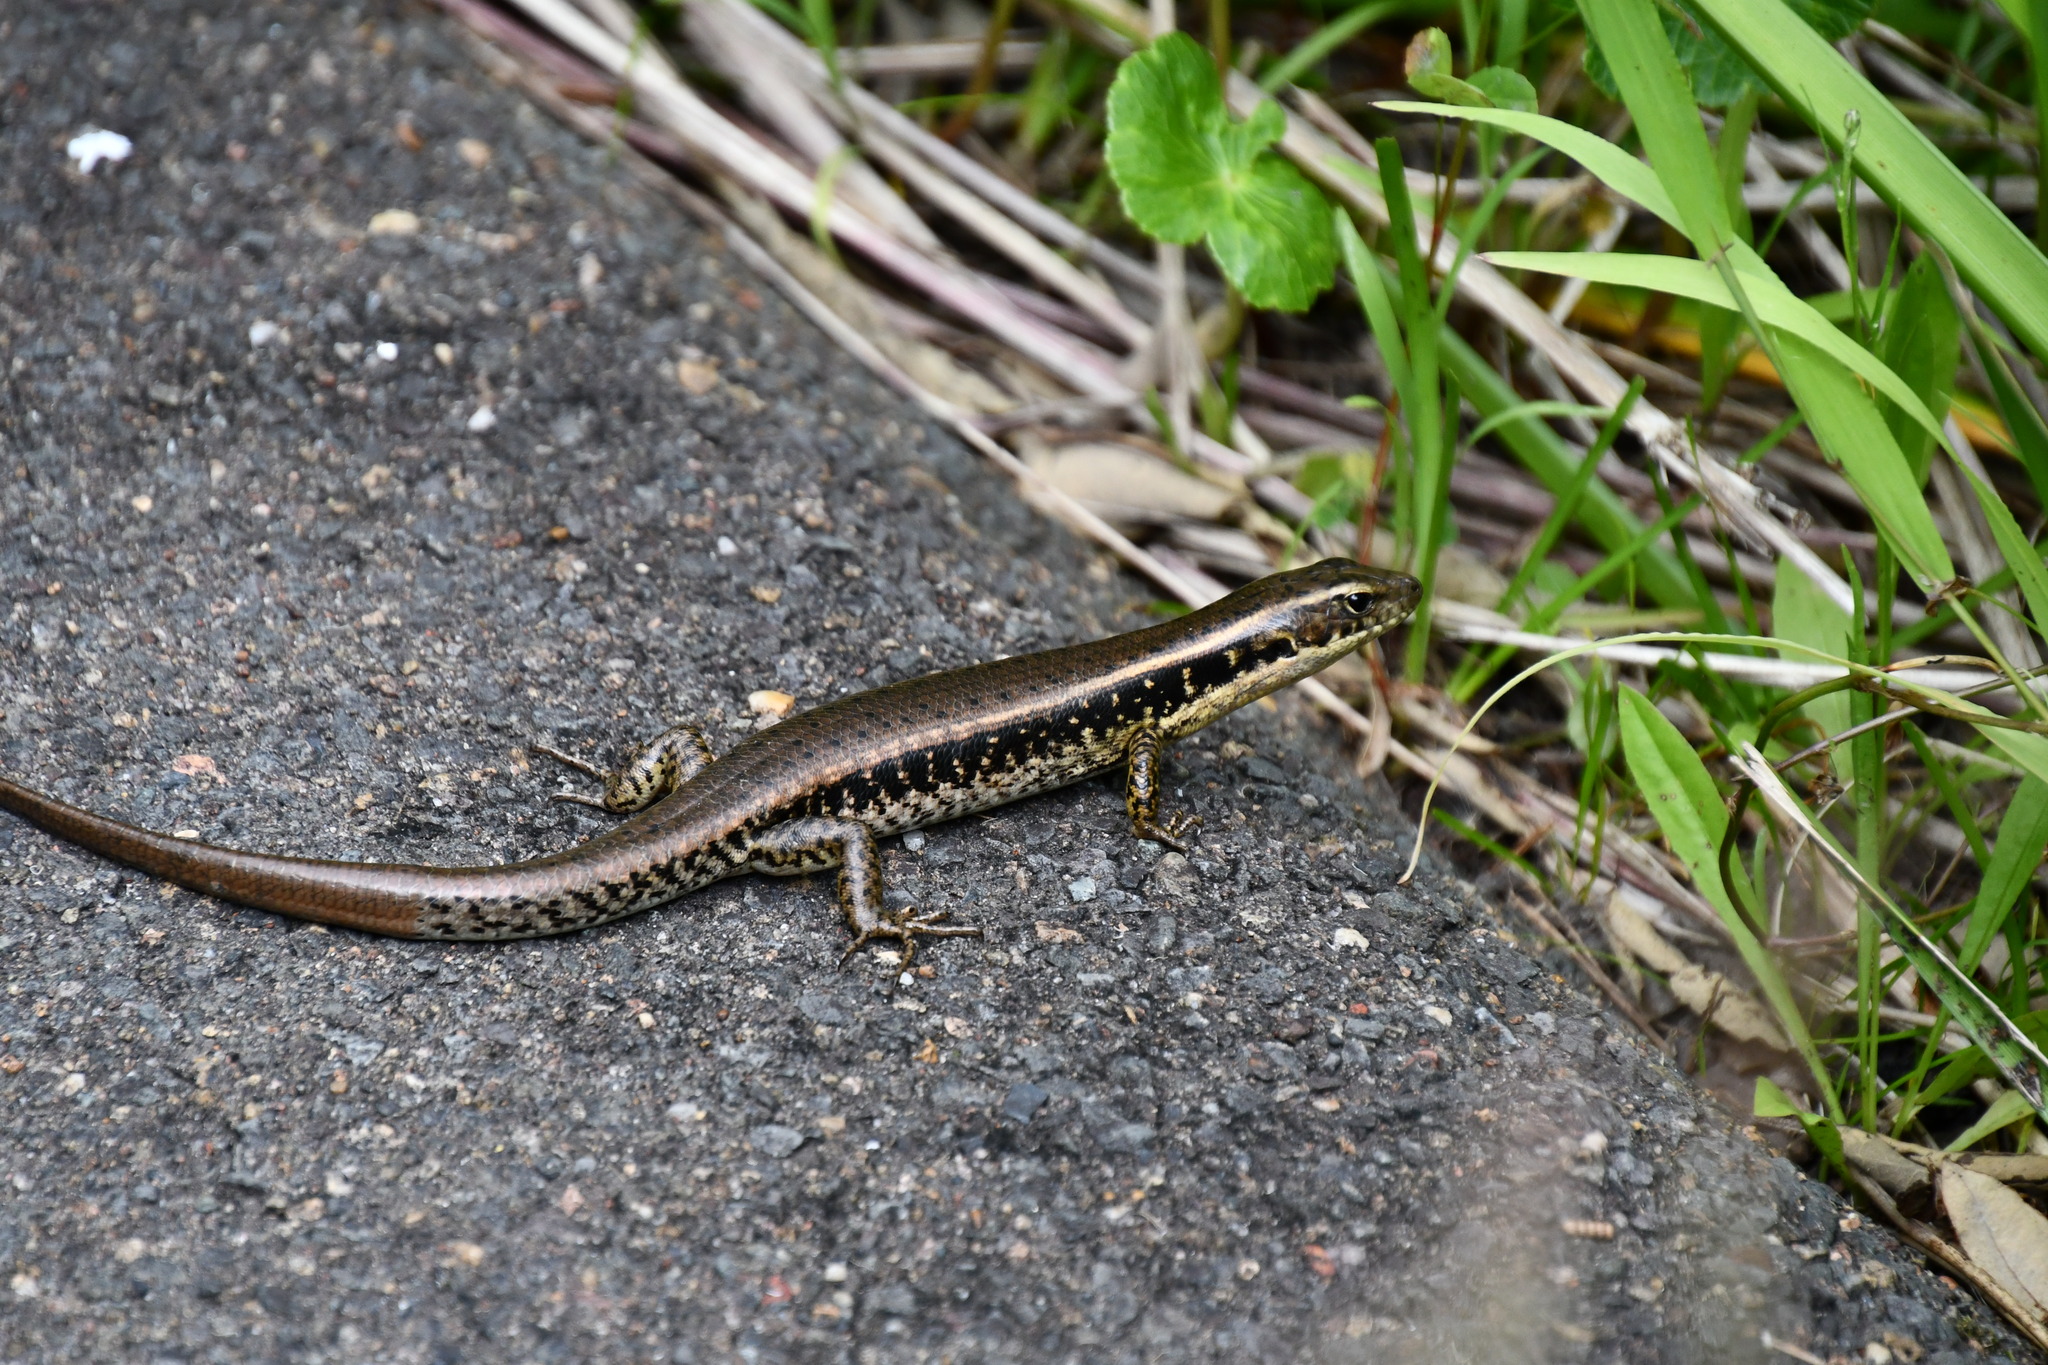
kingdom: Animalia
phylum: Chordata
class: Squamata
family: Scincidae
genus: Eulamprus
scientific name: Eulamprus quoyii
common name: Eastern water skink
